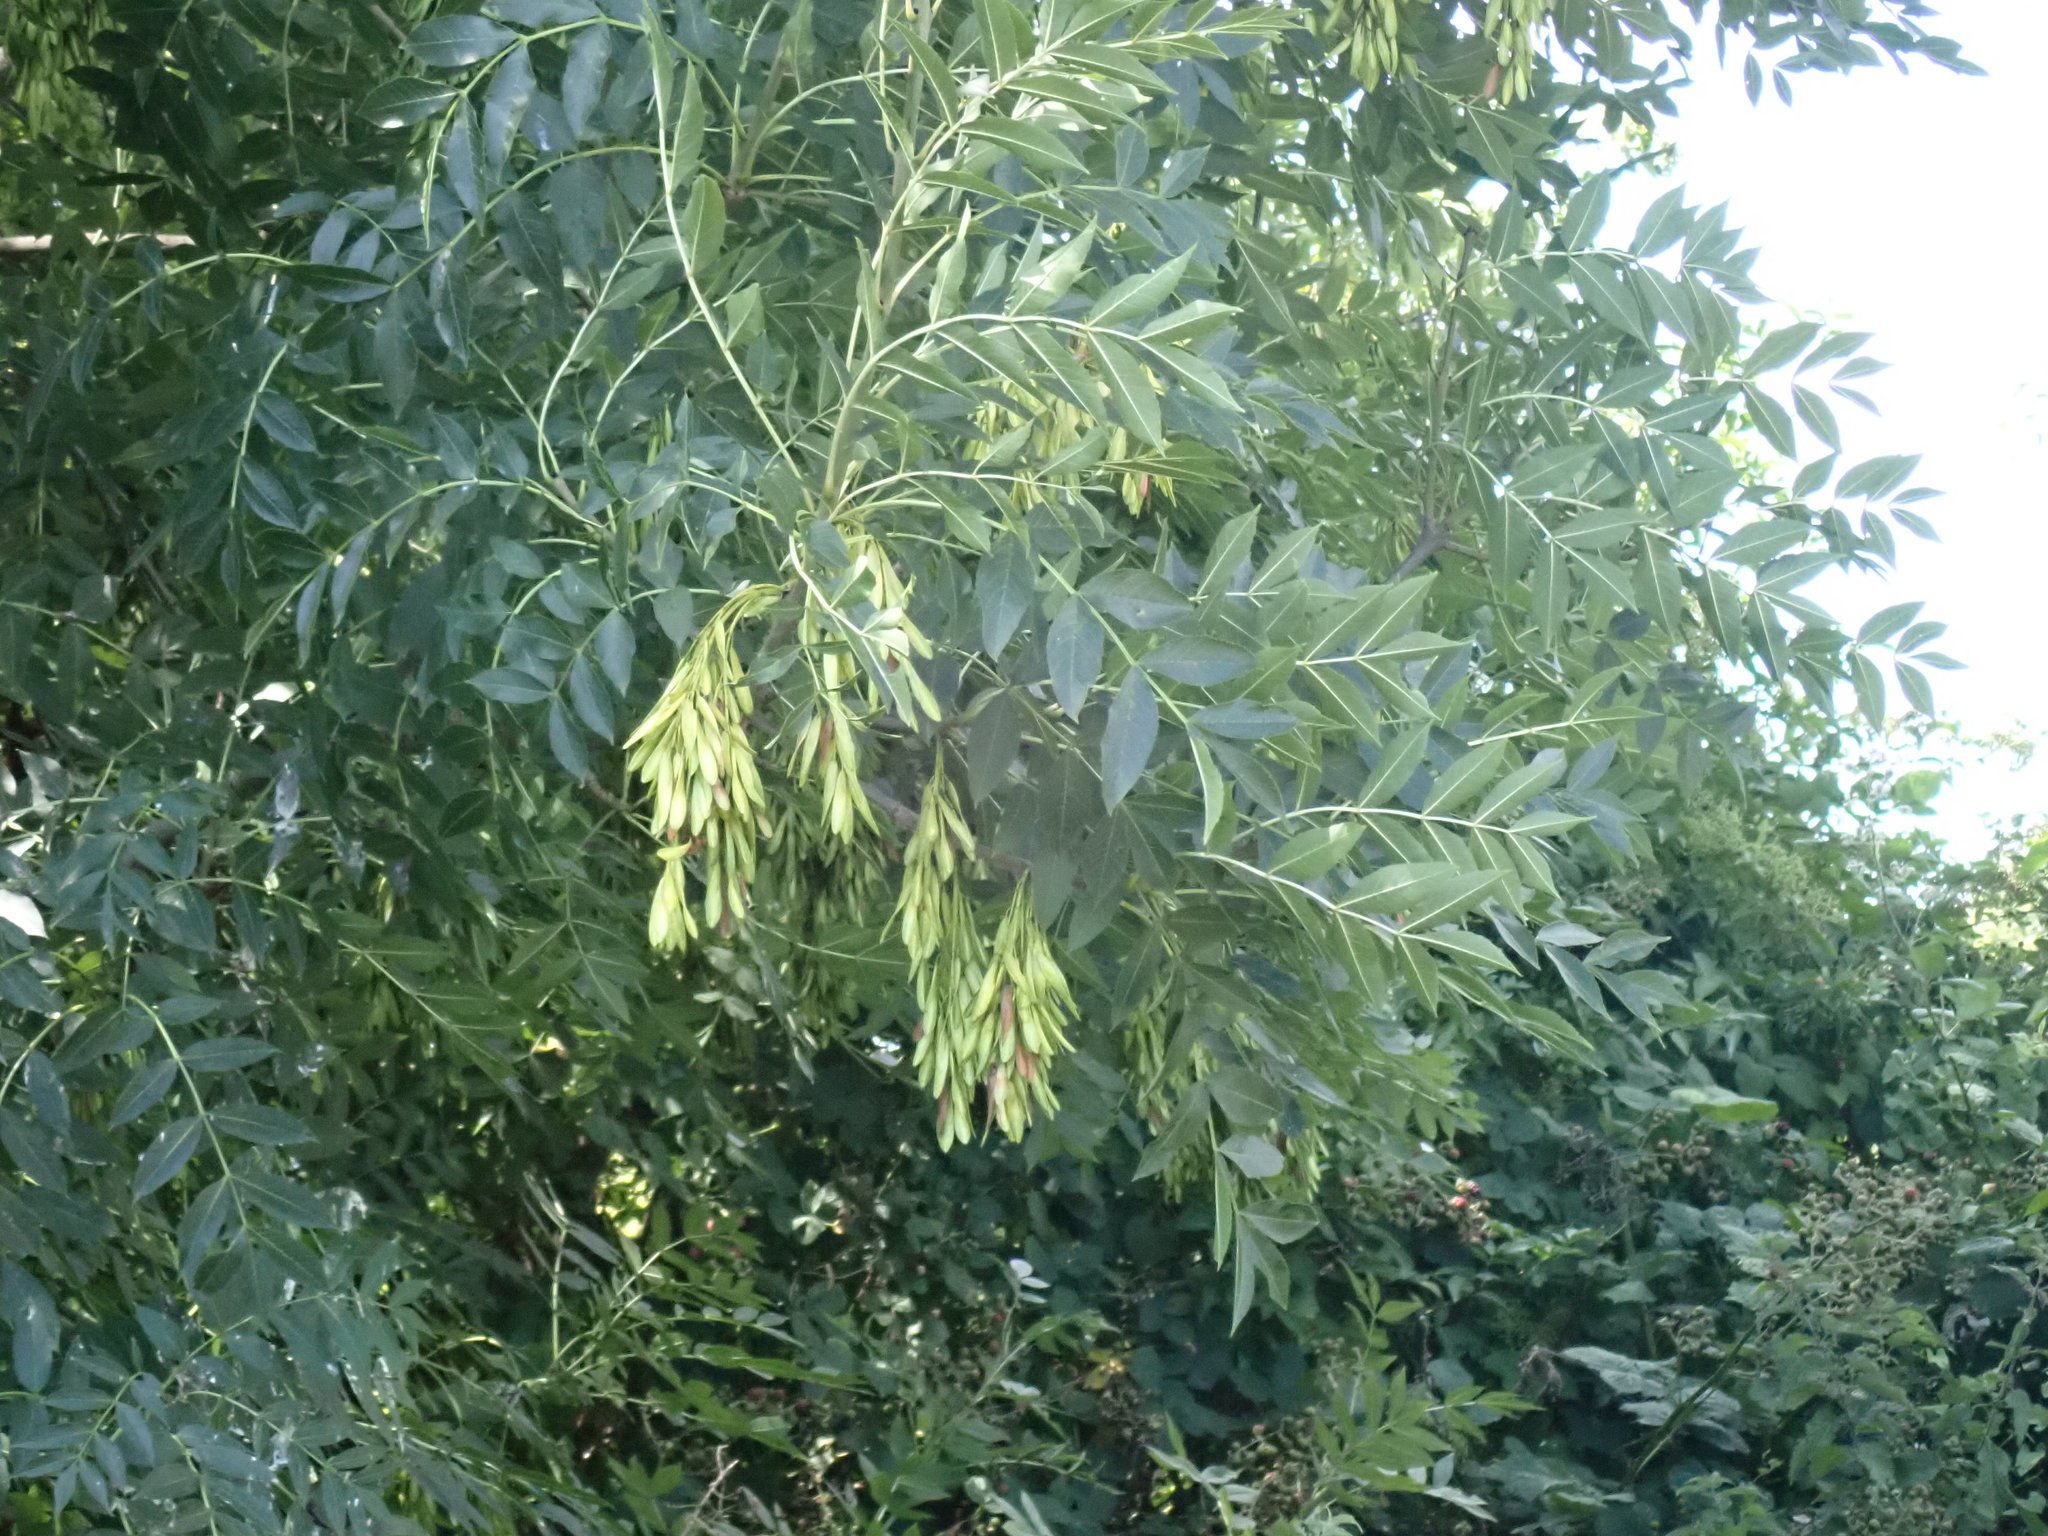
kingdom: Plantae
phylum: Tracheophyta
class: Magnoliopsida
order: Lamiales
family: Oleaceae
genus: Fraxinus
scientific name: Fraxinus excelsior
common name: European ash
